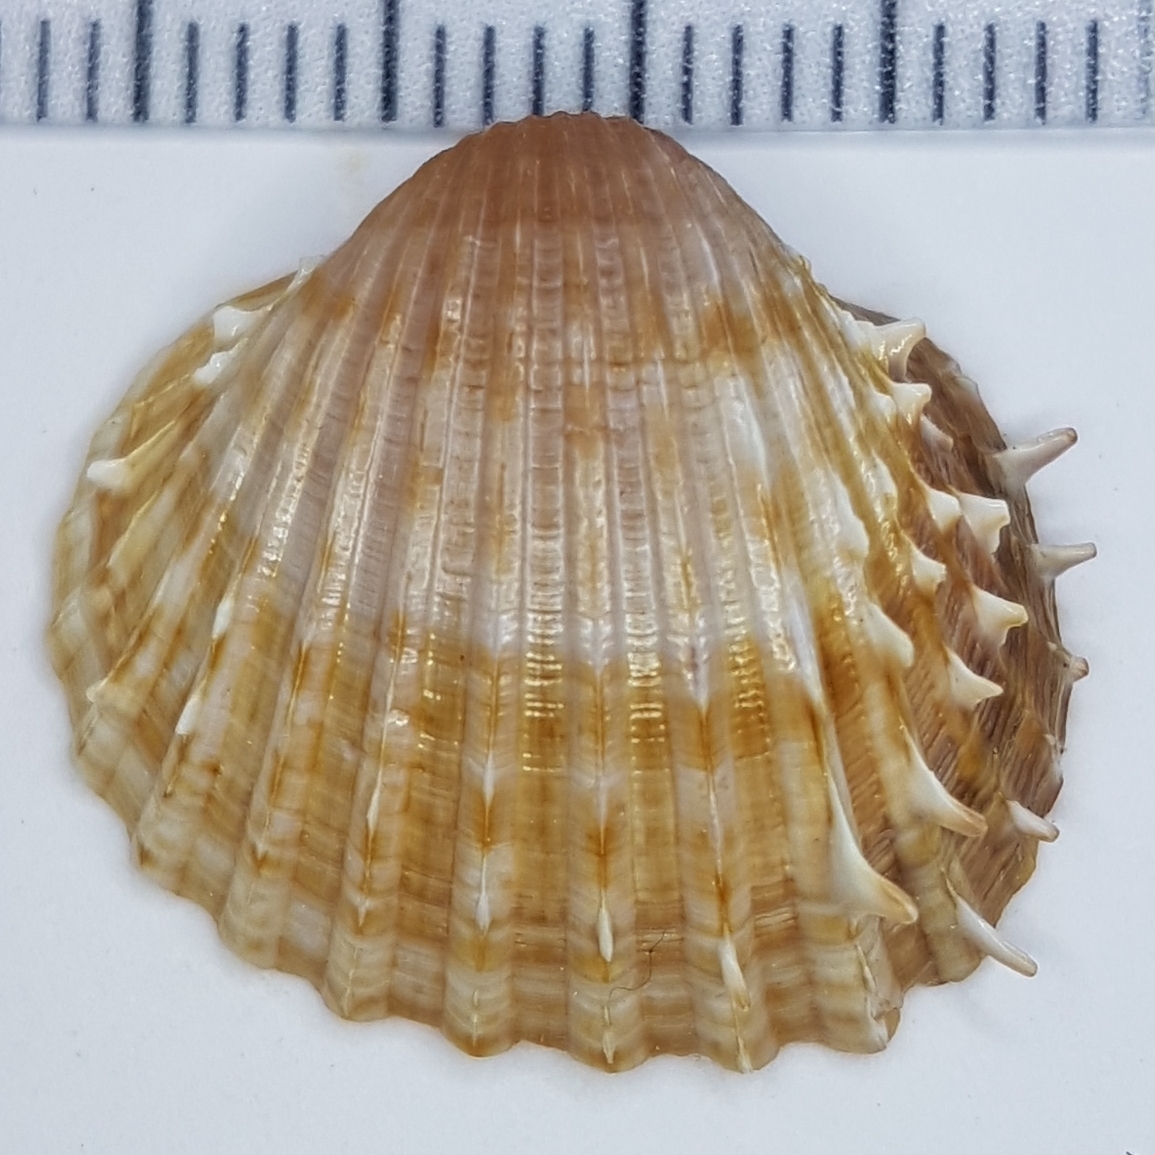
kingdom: Animalia
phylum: Mollusca
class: Bivalvia
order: Cardiida
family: Cardiidae
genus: Acanthocardia
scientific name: Acanthocardia aculeata
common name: Spiny cockle
